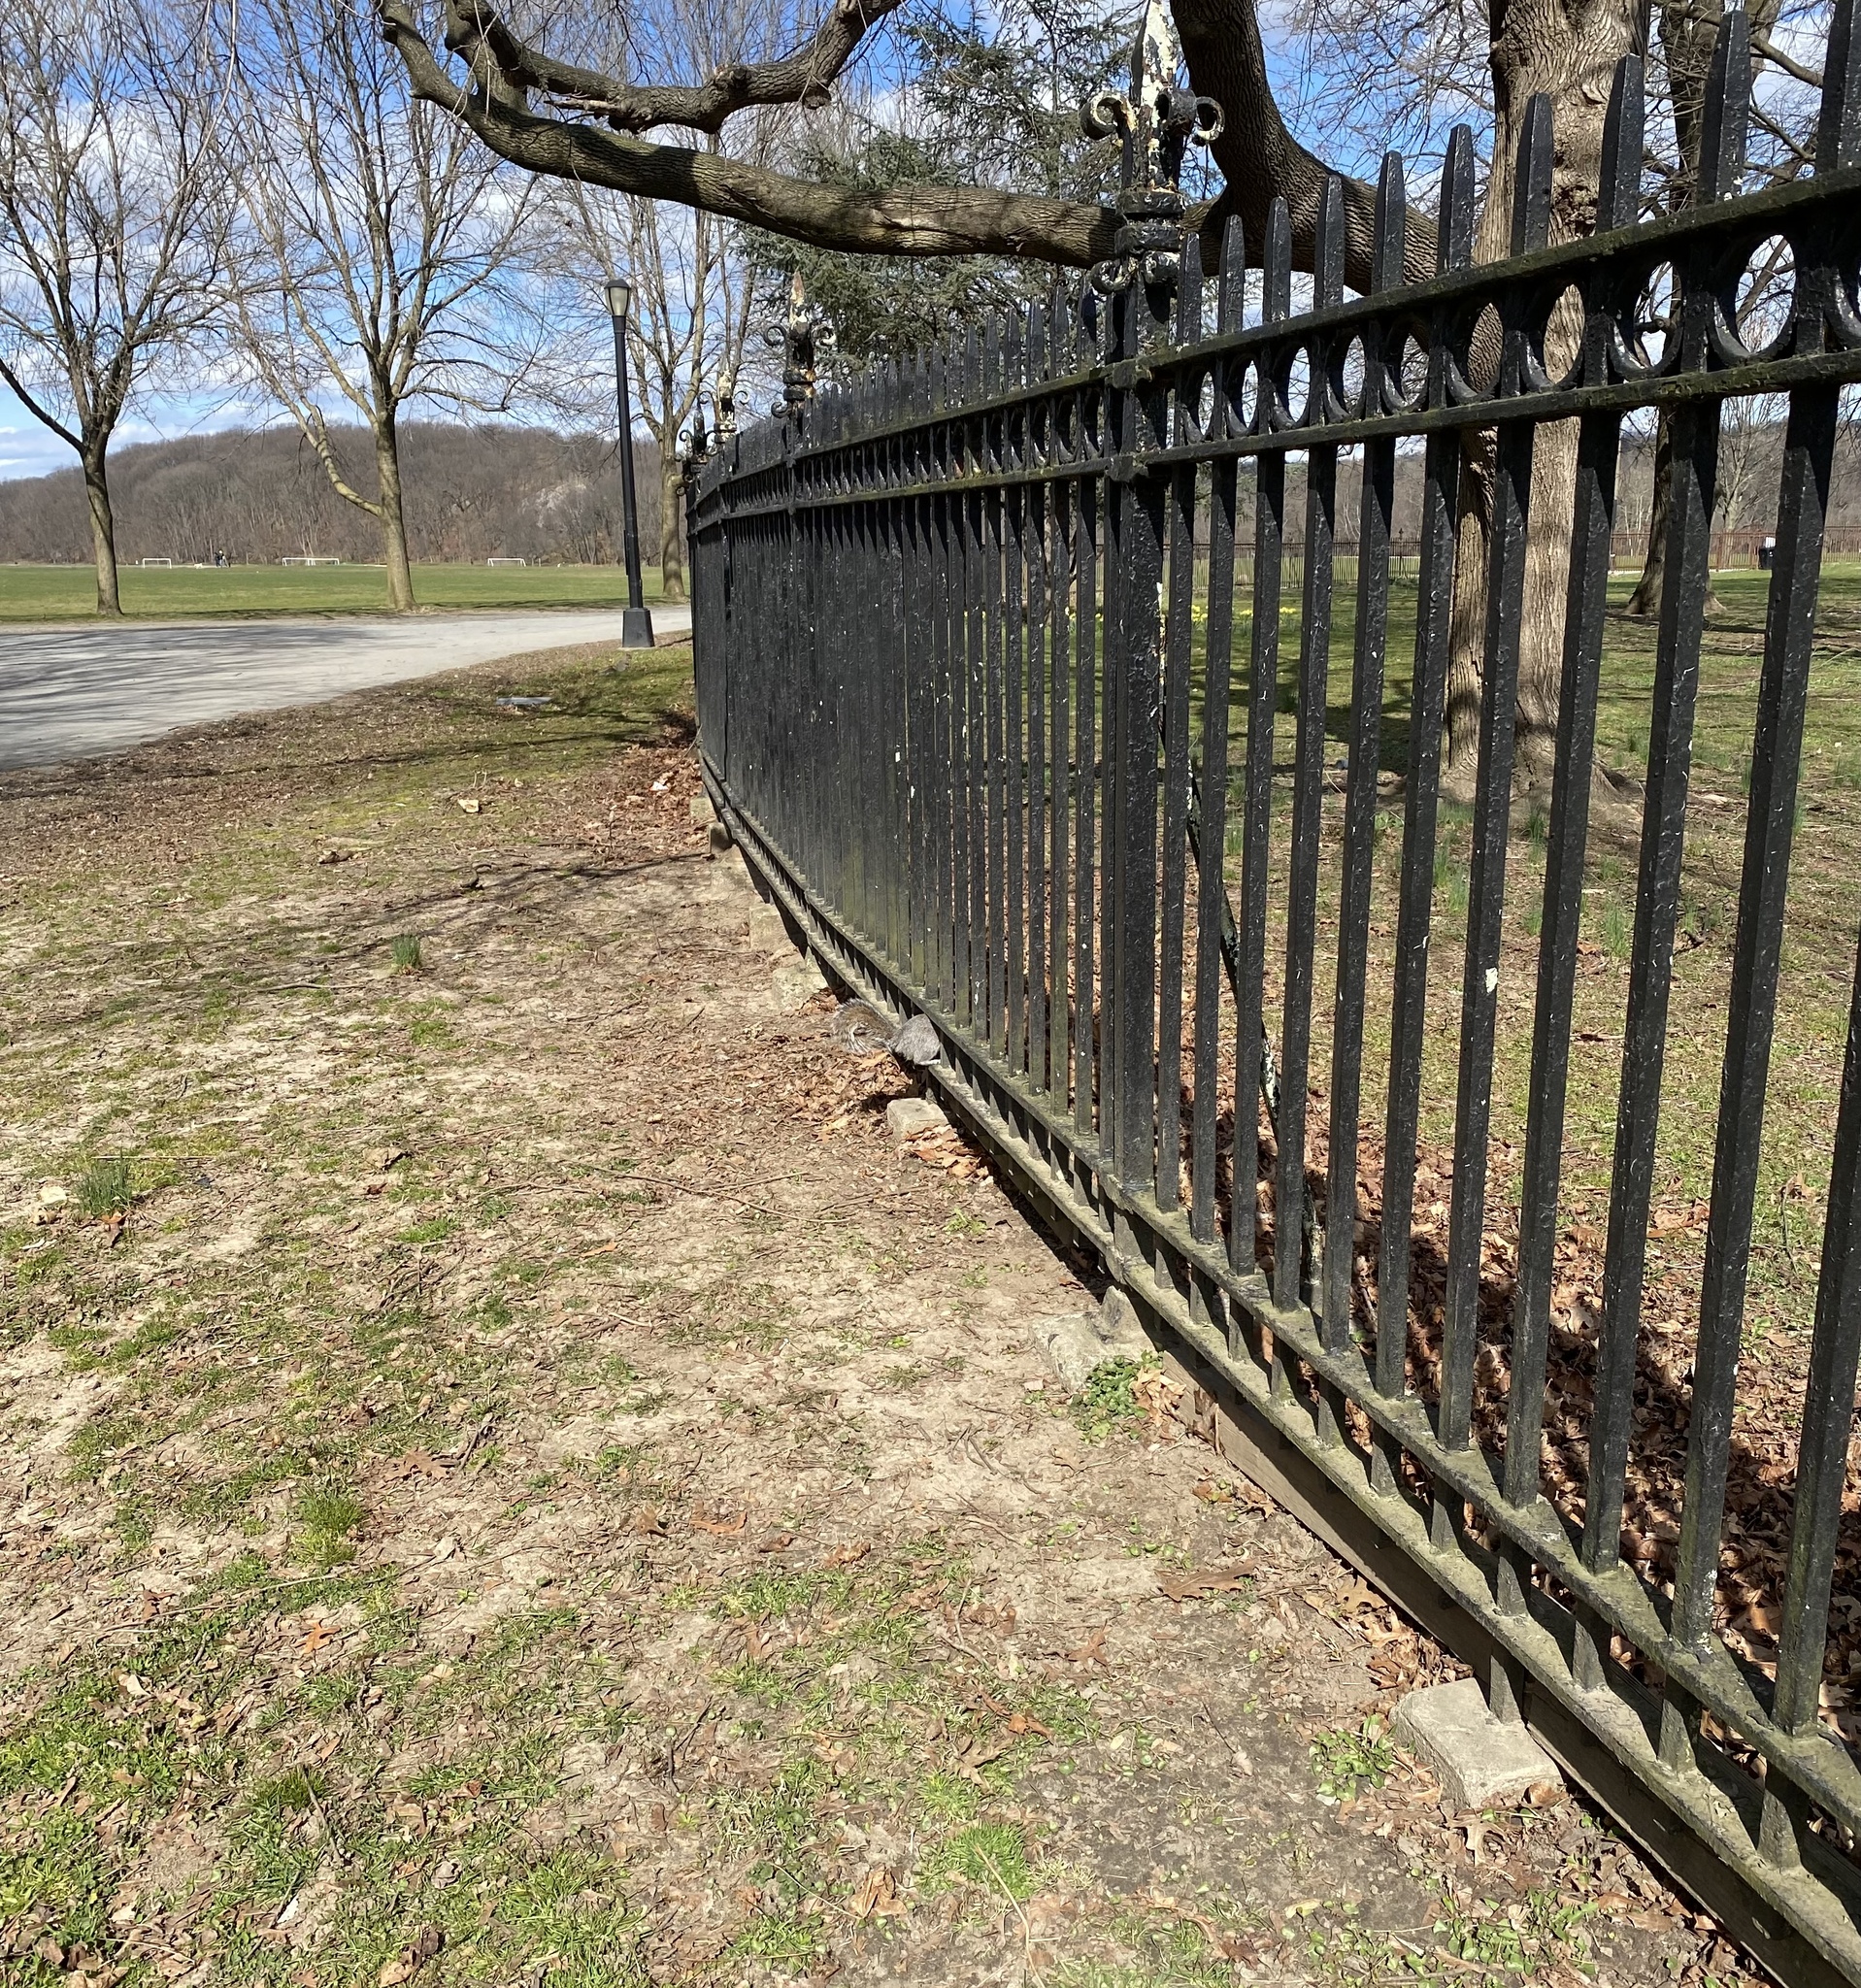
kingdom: Animalia
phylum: Chordata
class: Mammalia
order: Rodentia
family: Sciuridae
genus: Sciurus
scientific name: Sciurus carolinensis
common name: Eastern gray squirrel
